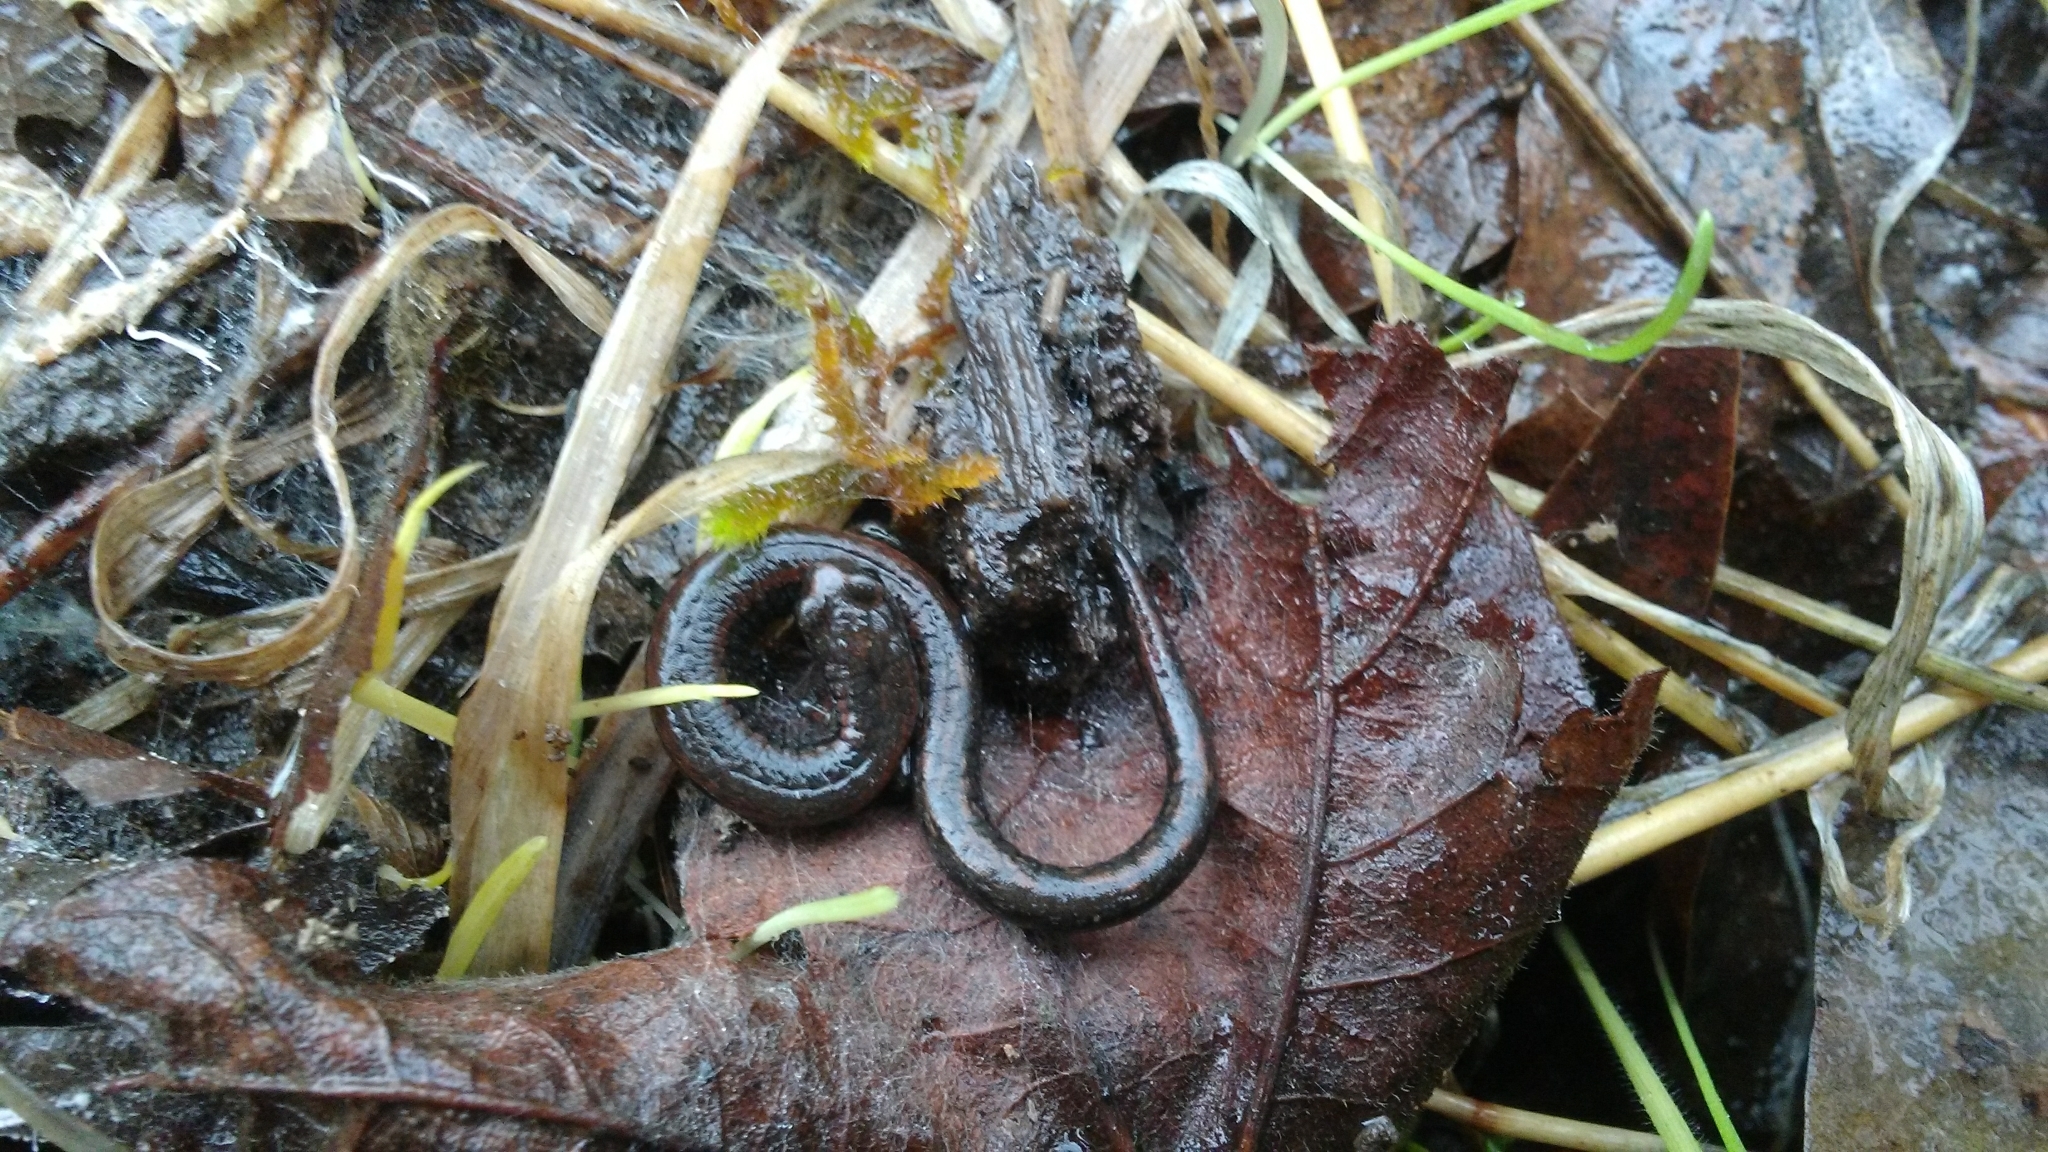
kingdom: Animalia
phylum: Chordata
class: Amphibia
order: Caudata
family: Plethodontidae
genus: Batrachoseps
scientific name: Batrachoseps attenuatus
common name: California slender salamander
